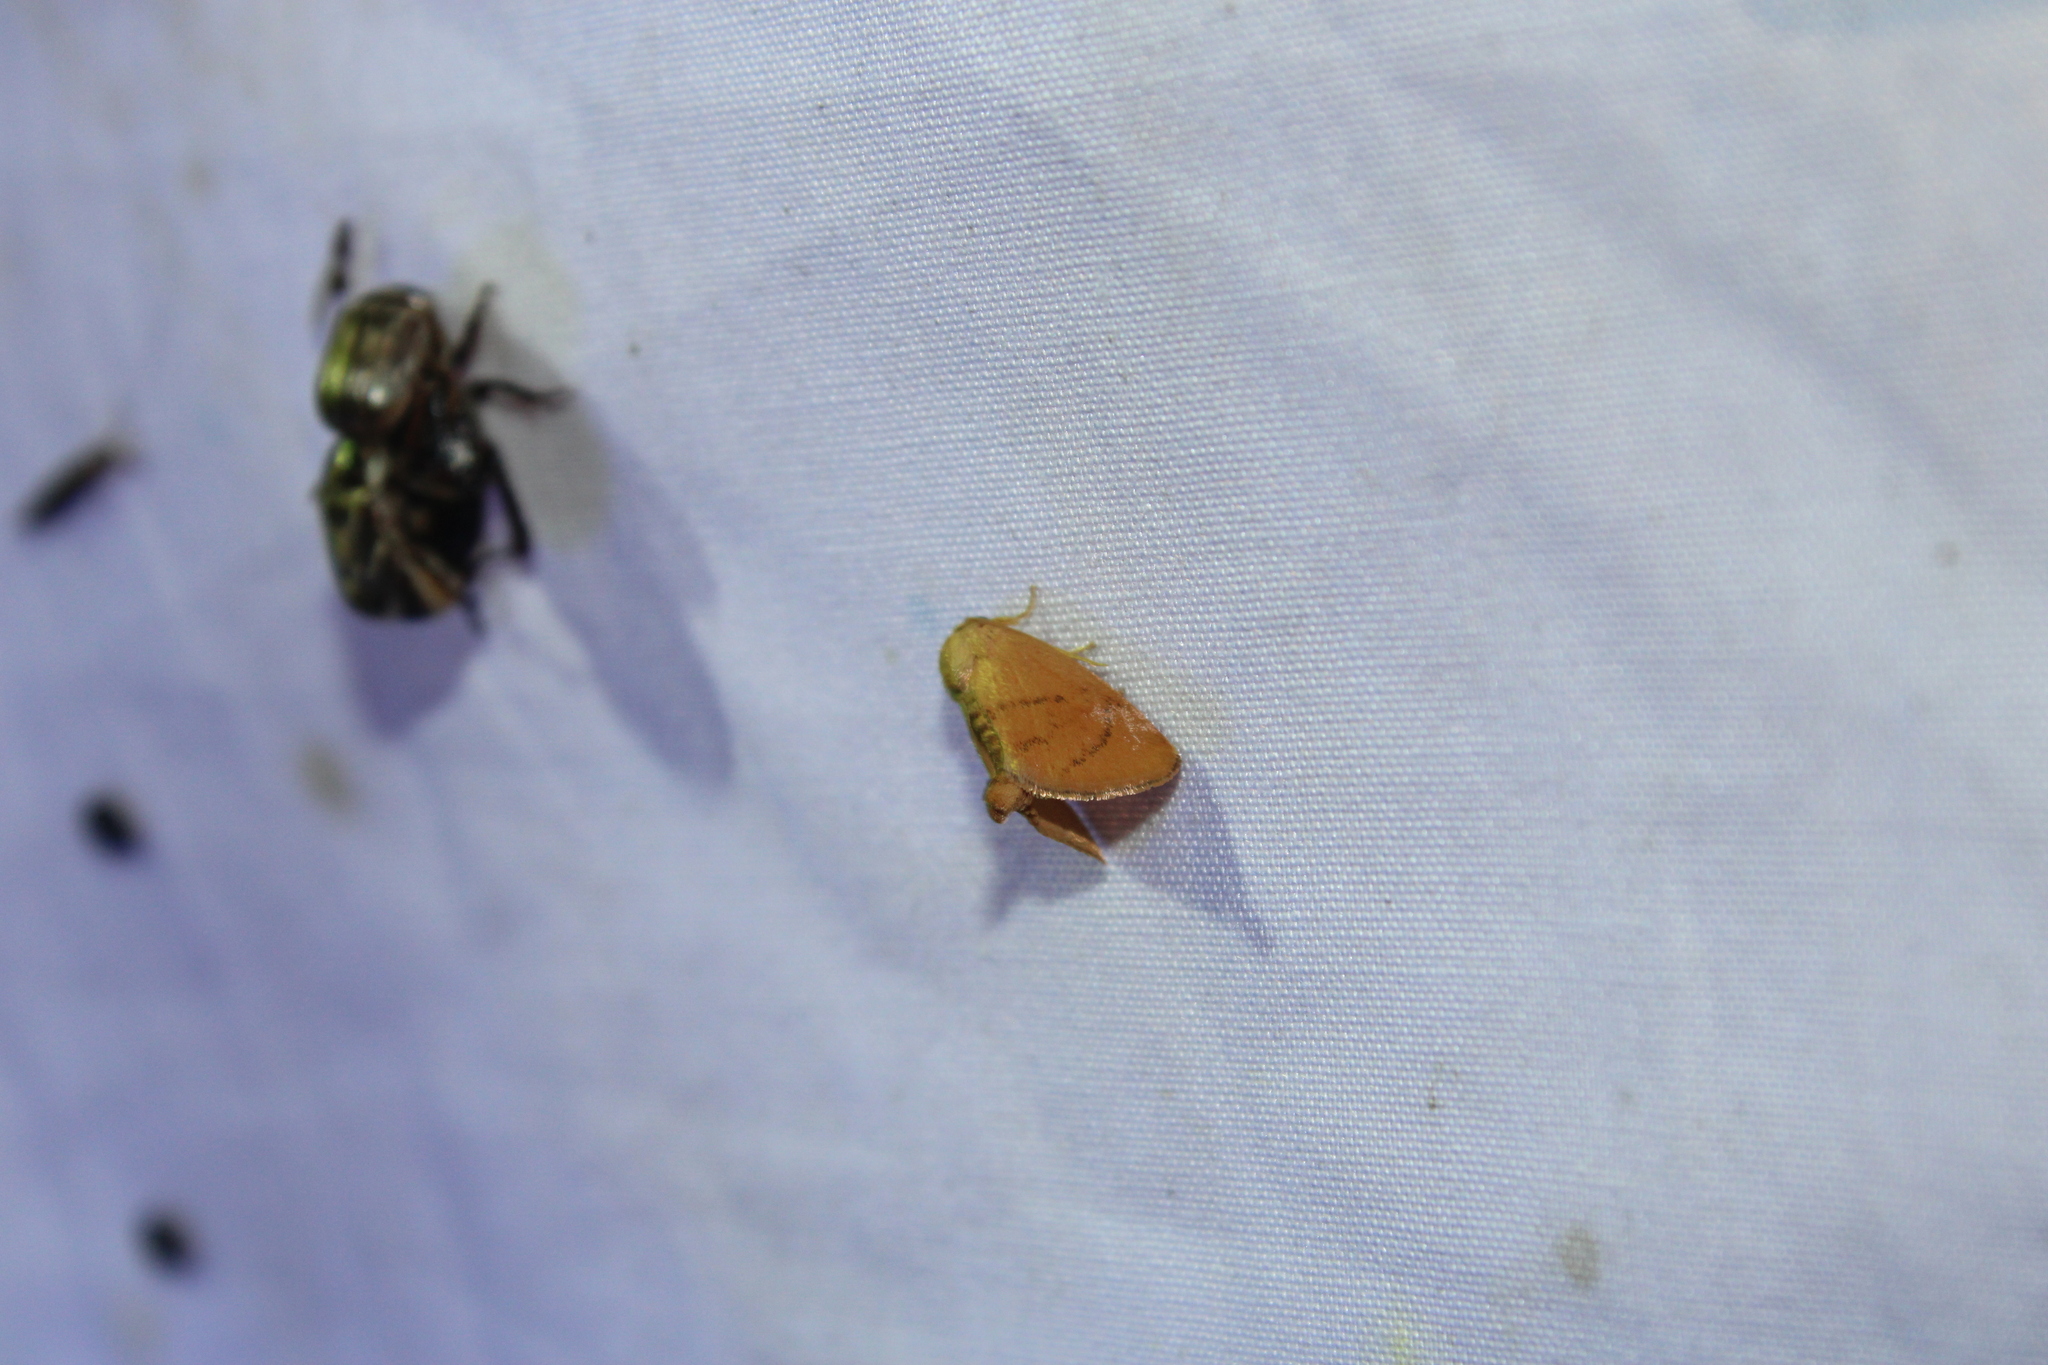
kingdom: Animalia
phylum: Arthropoda
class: Insecta
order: Lepidoptera
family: Limacodidae
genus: Tortricidia
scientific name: Tortricidia flexuosa
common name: Abbreviated button slug moth
